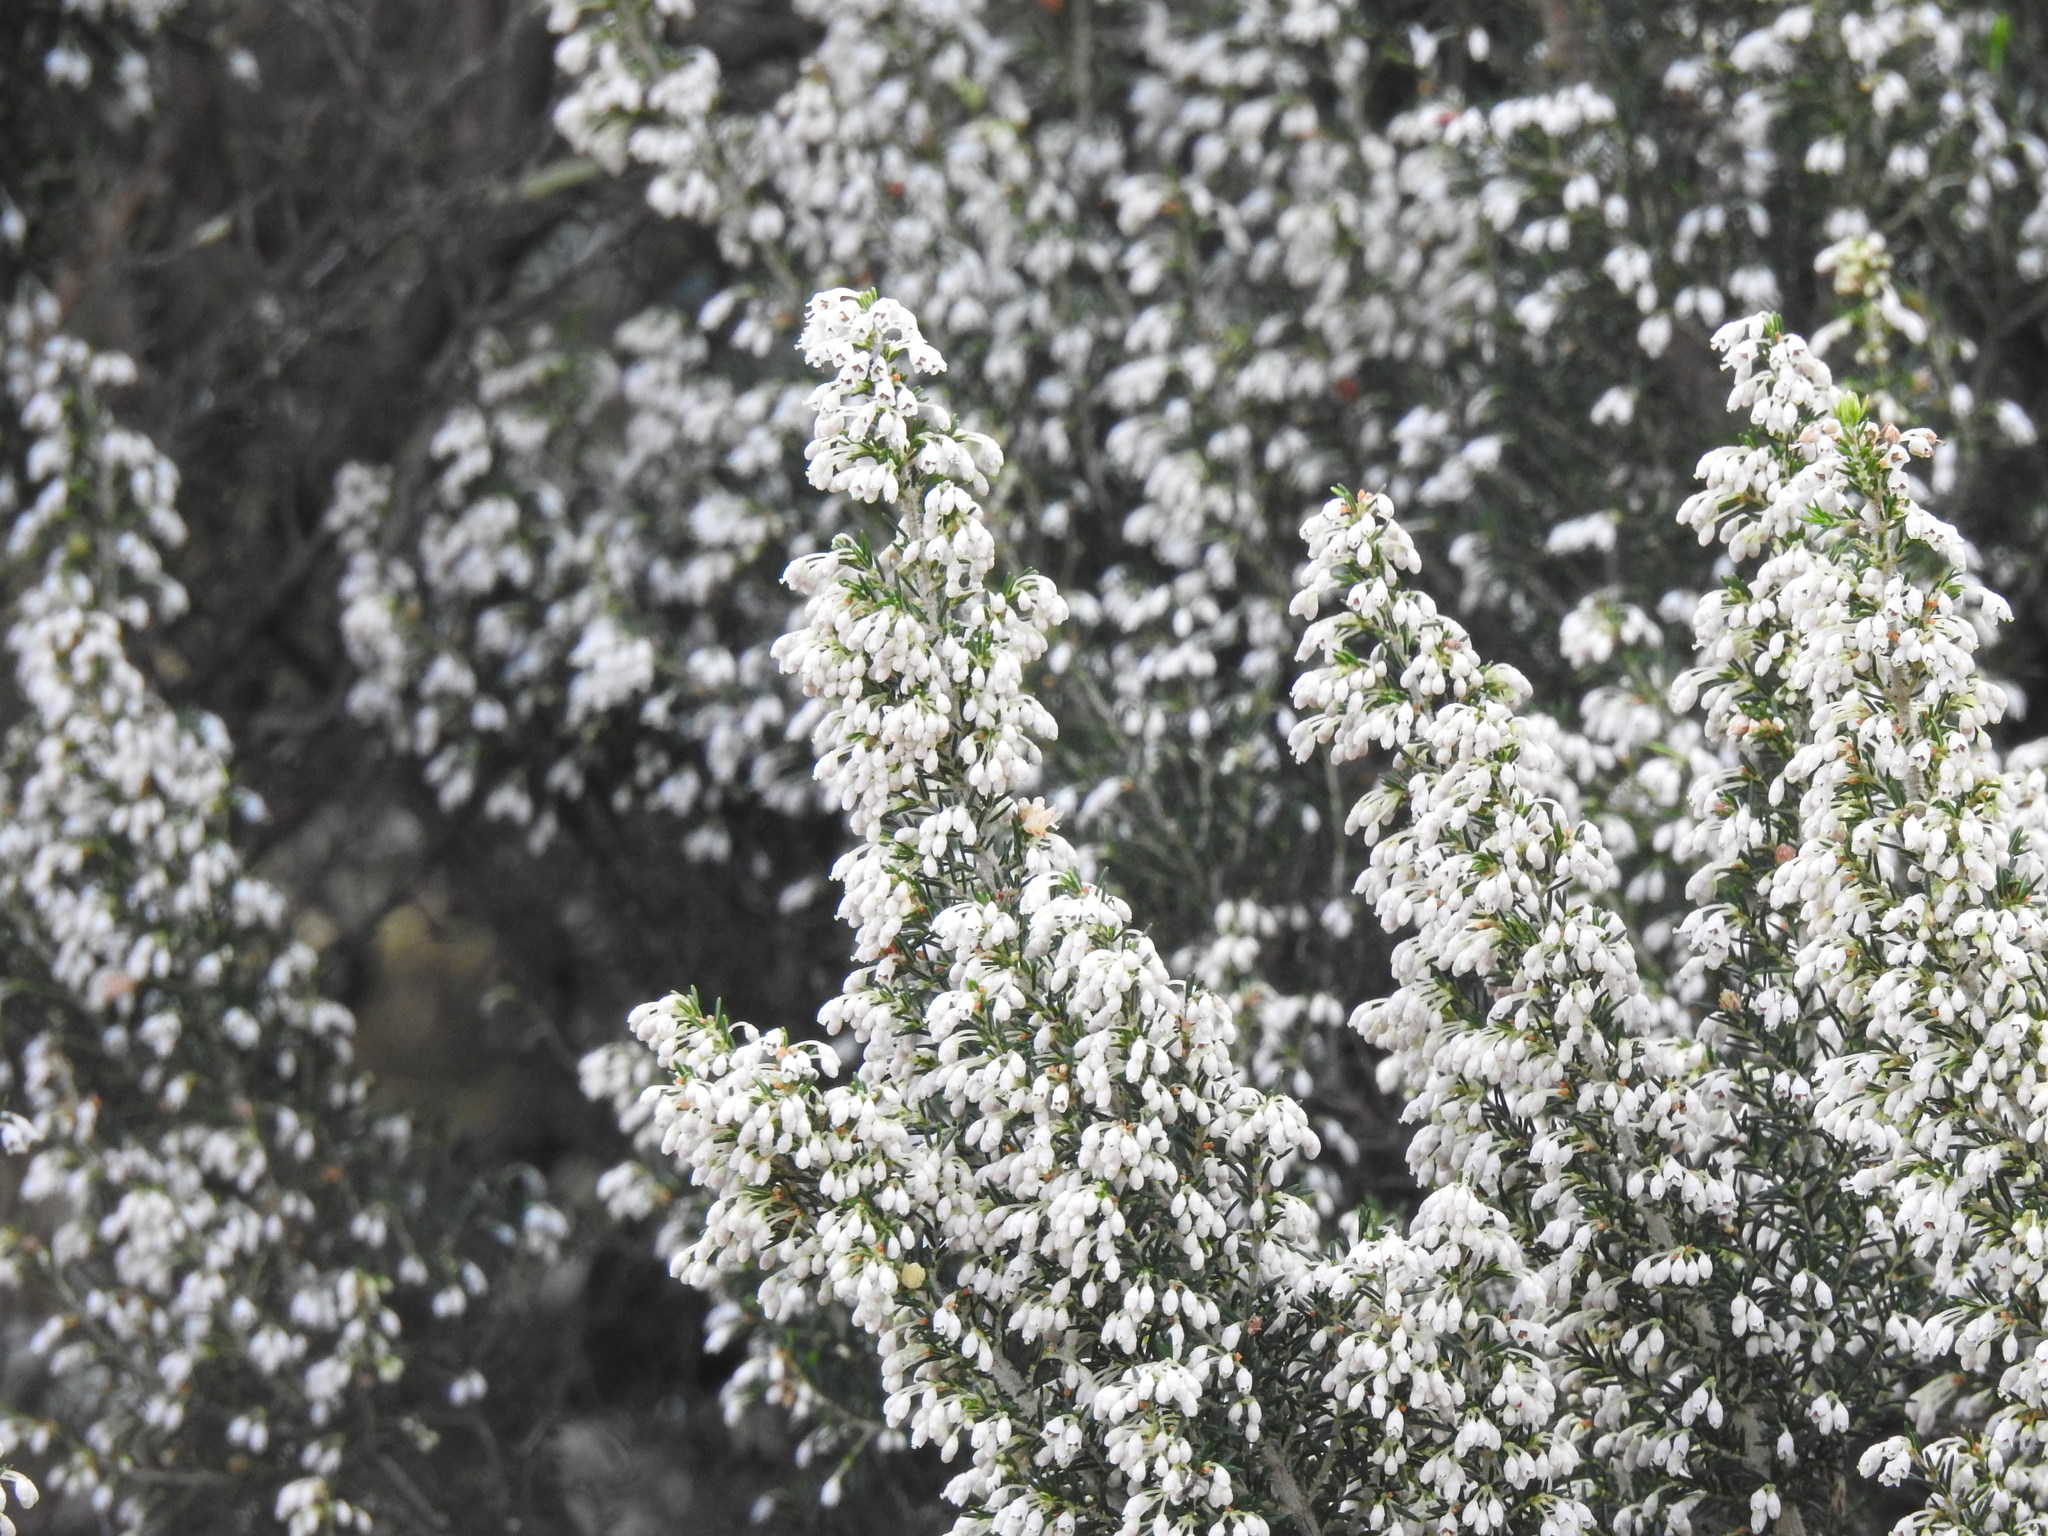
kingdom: Plantae
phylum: Tracheophyta
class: Magnoliopsida
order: Ericales
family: Ericaceae
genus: Erica
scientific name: Erica lusitanica
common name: Spanish heath
